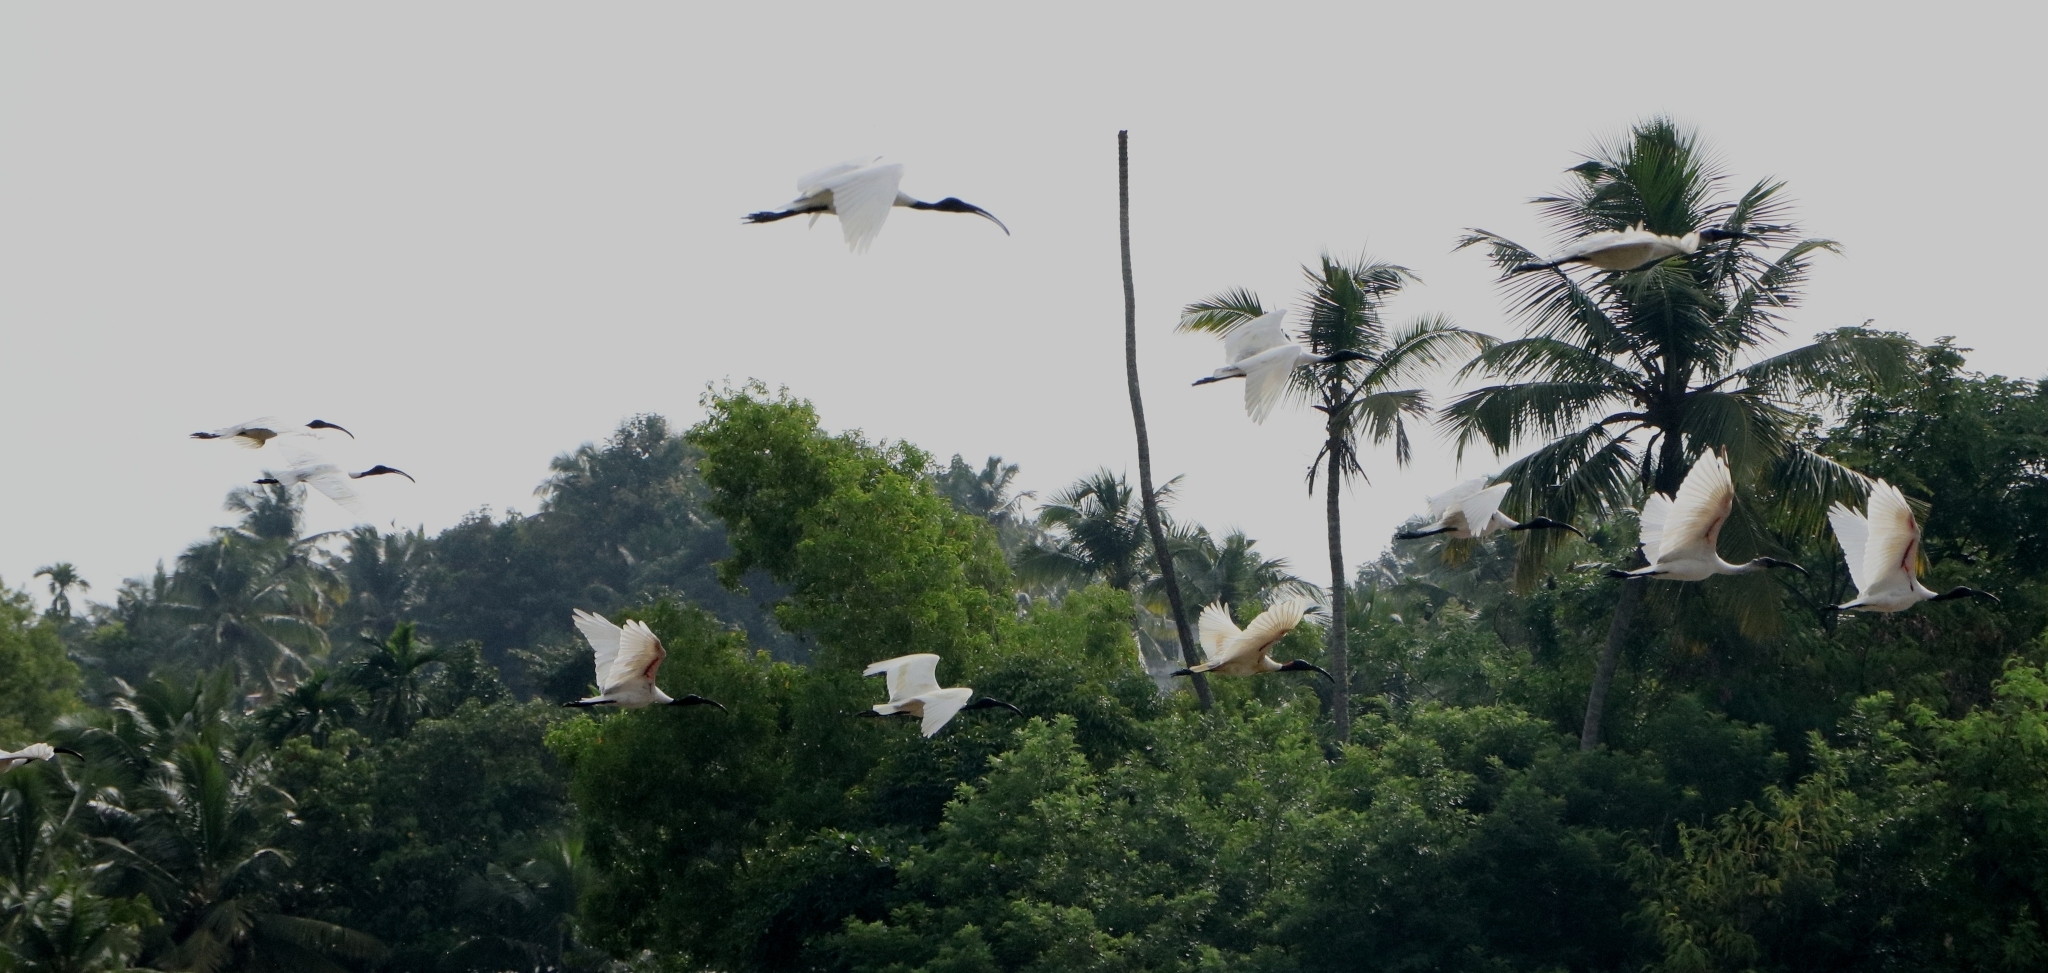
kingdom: Animalia
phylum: Chordata
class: Aves
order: Pelecaniformes
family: Threskiornithidae
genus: Threskiornis
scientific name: Threskiornis melanocephalus
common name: Black-headed ibis
